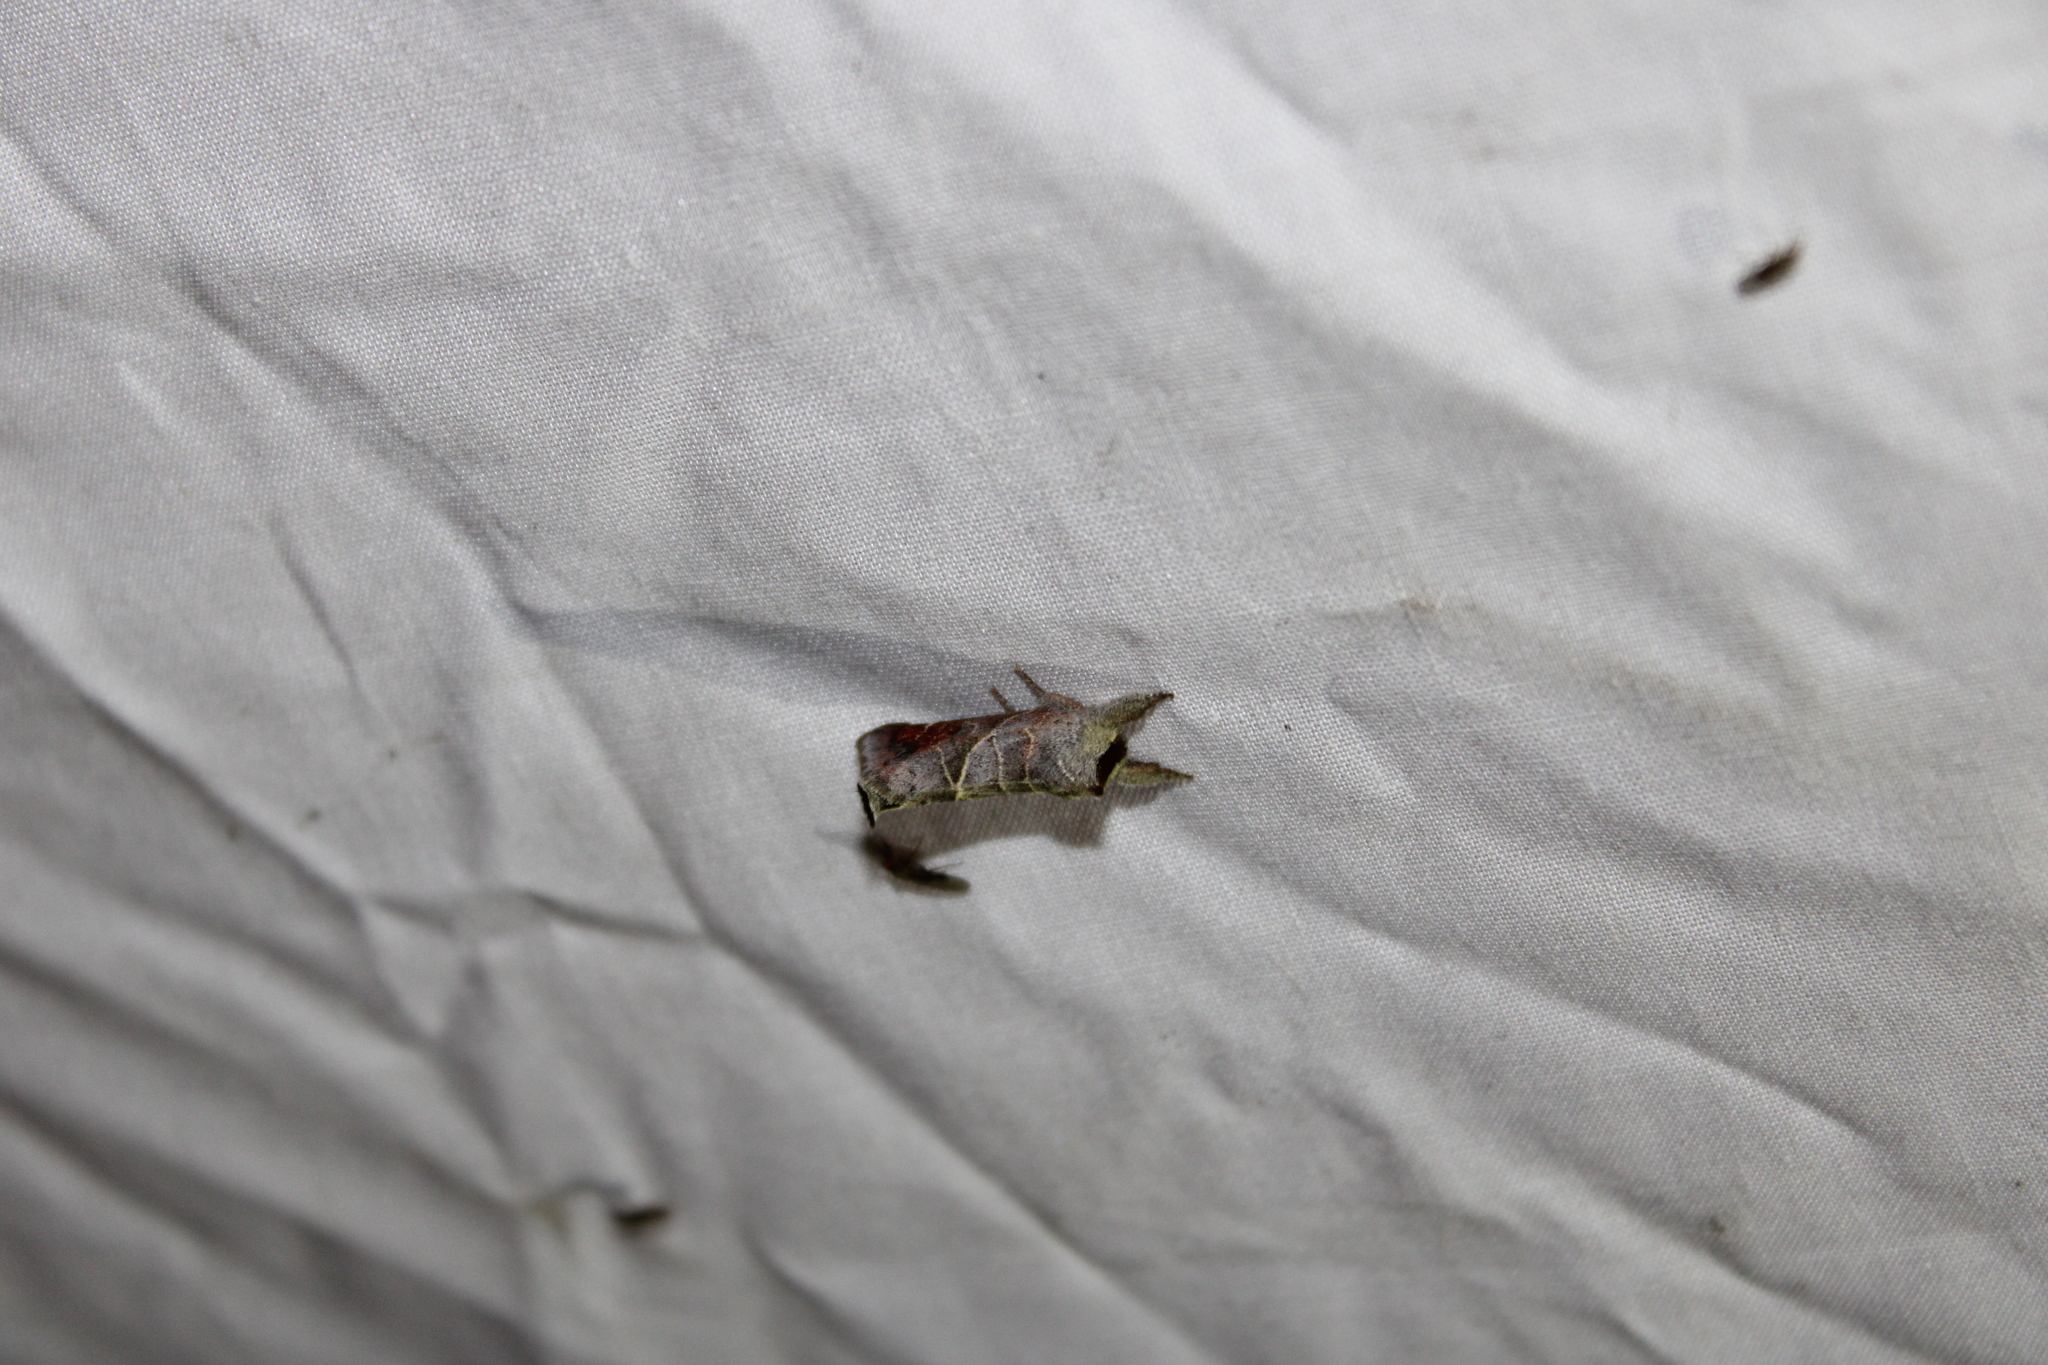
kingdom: Animalia
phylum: Arthropoda
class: Insecta
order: Lepidoptera
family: Notodontidae
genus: Clostera
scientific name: Clostera apicalis
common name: Apical prominent
